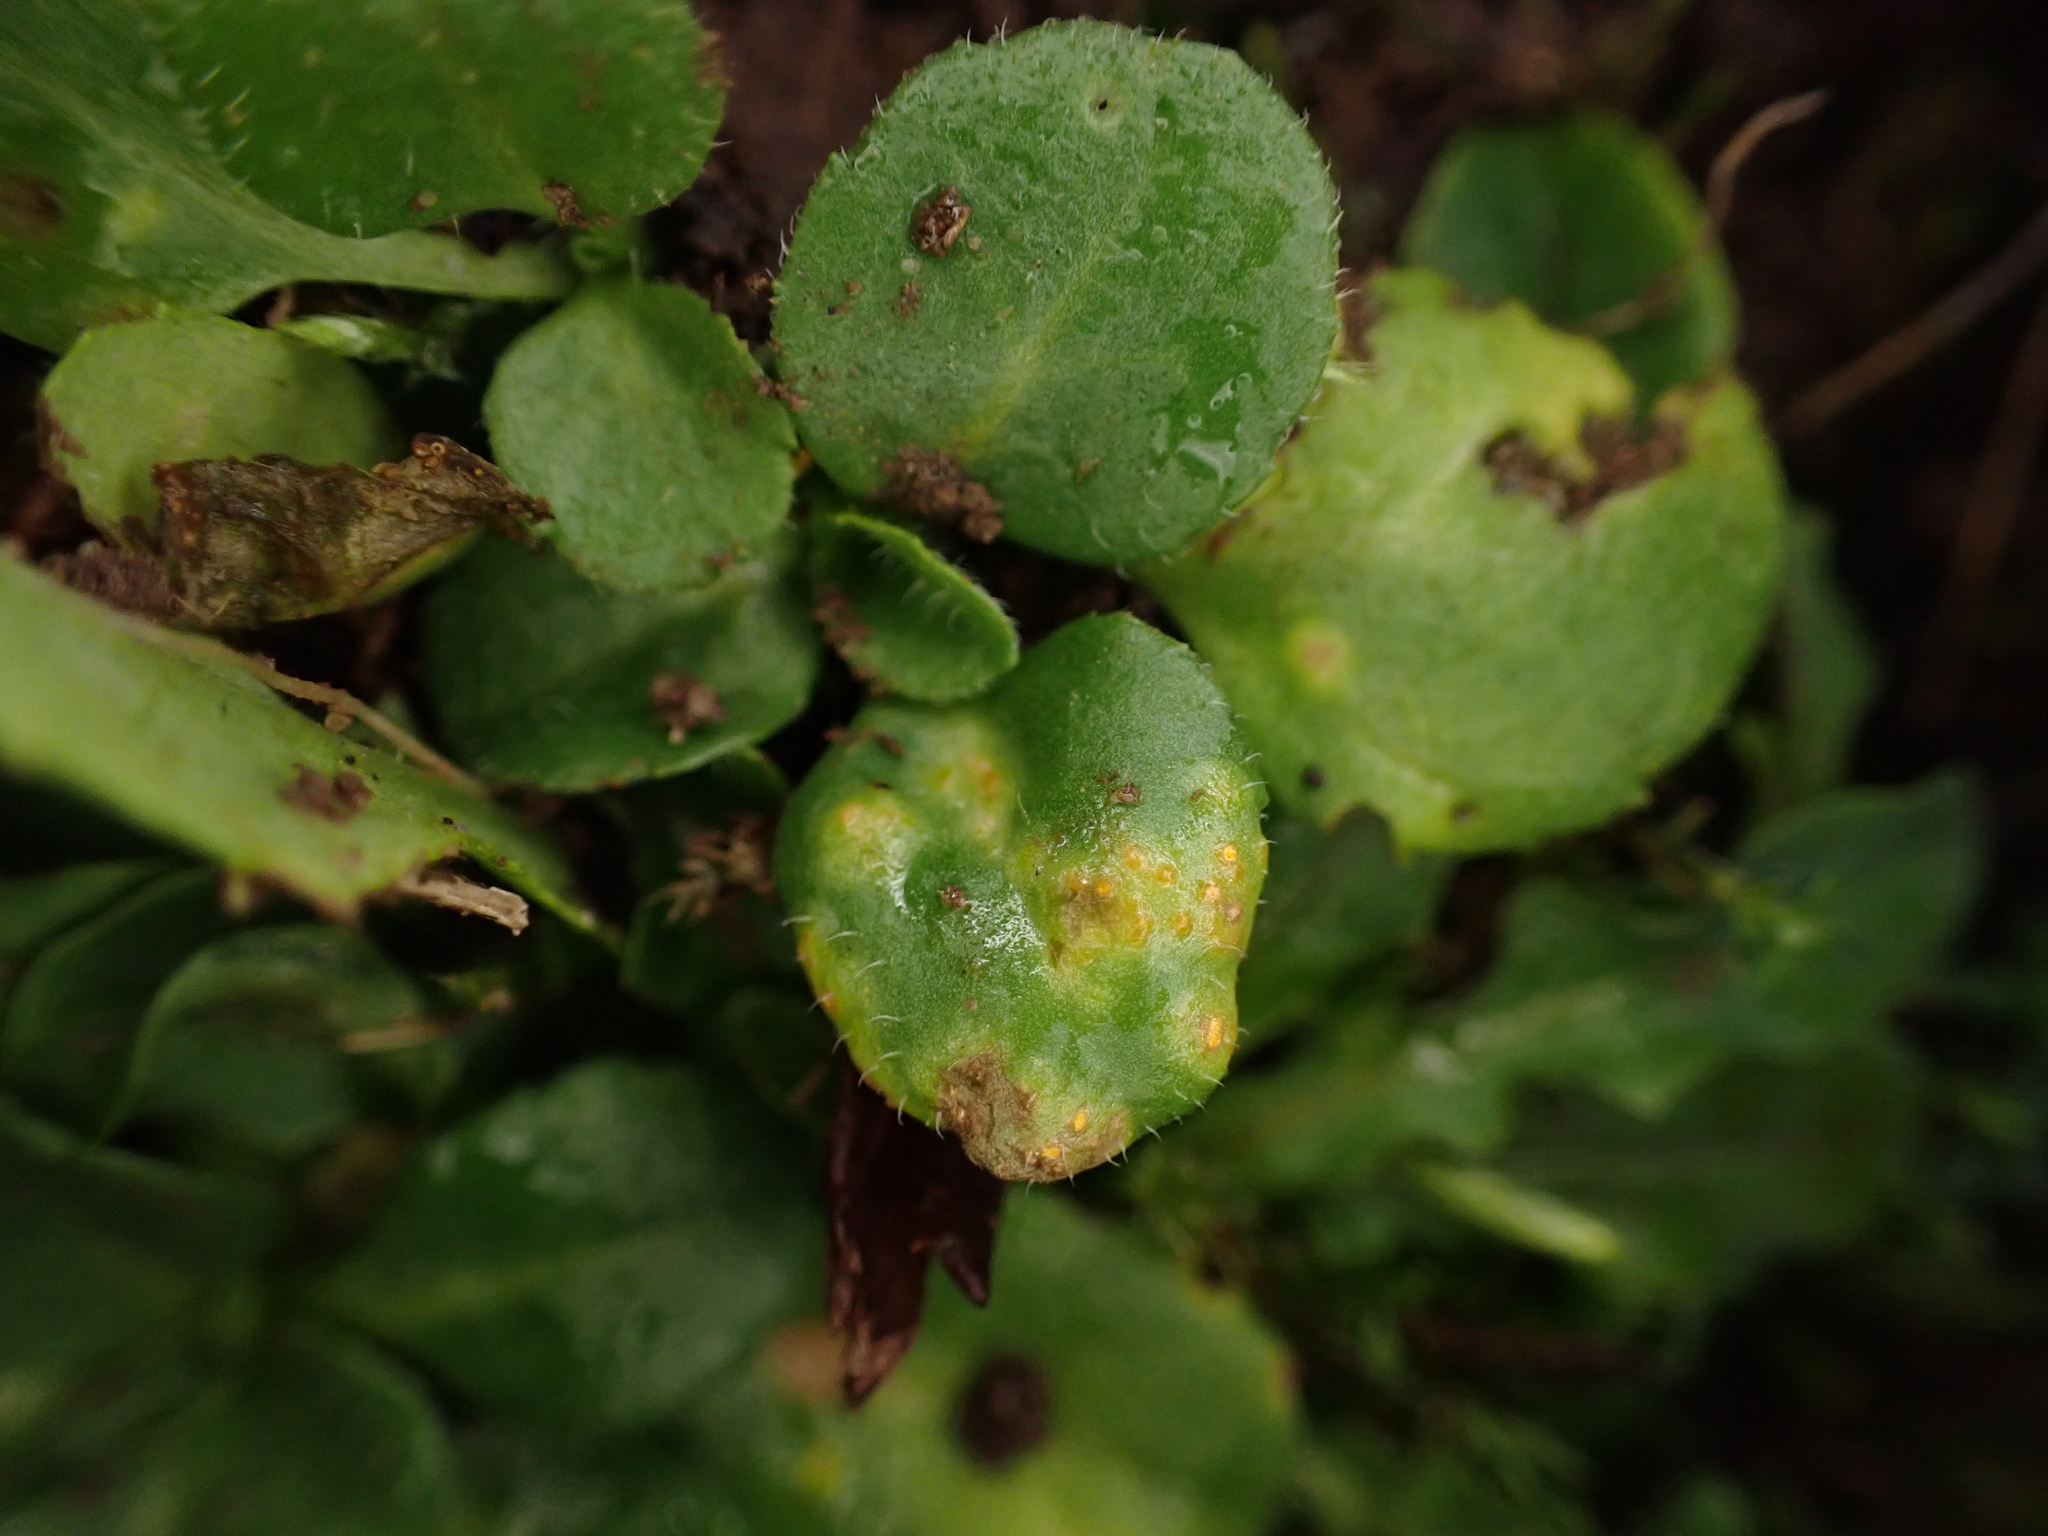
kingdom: Fungi
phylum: Basidiomycota
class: Pucciniomycetes
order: Pucciniales
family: Pucciniaceae
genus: Puccinia
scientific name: Puccinia lagenophorae
